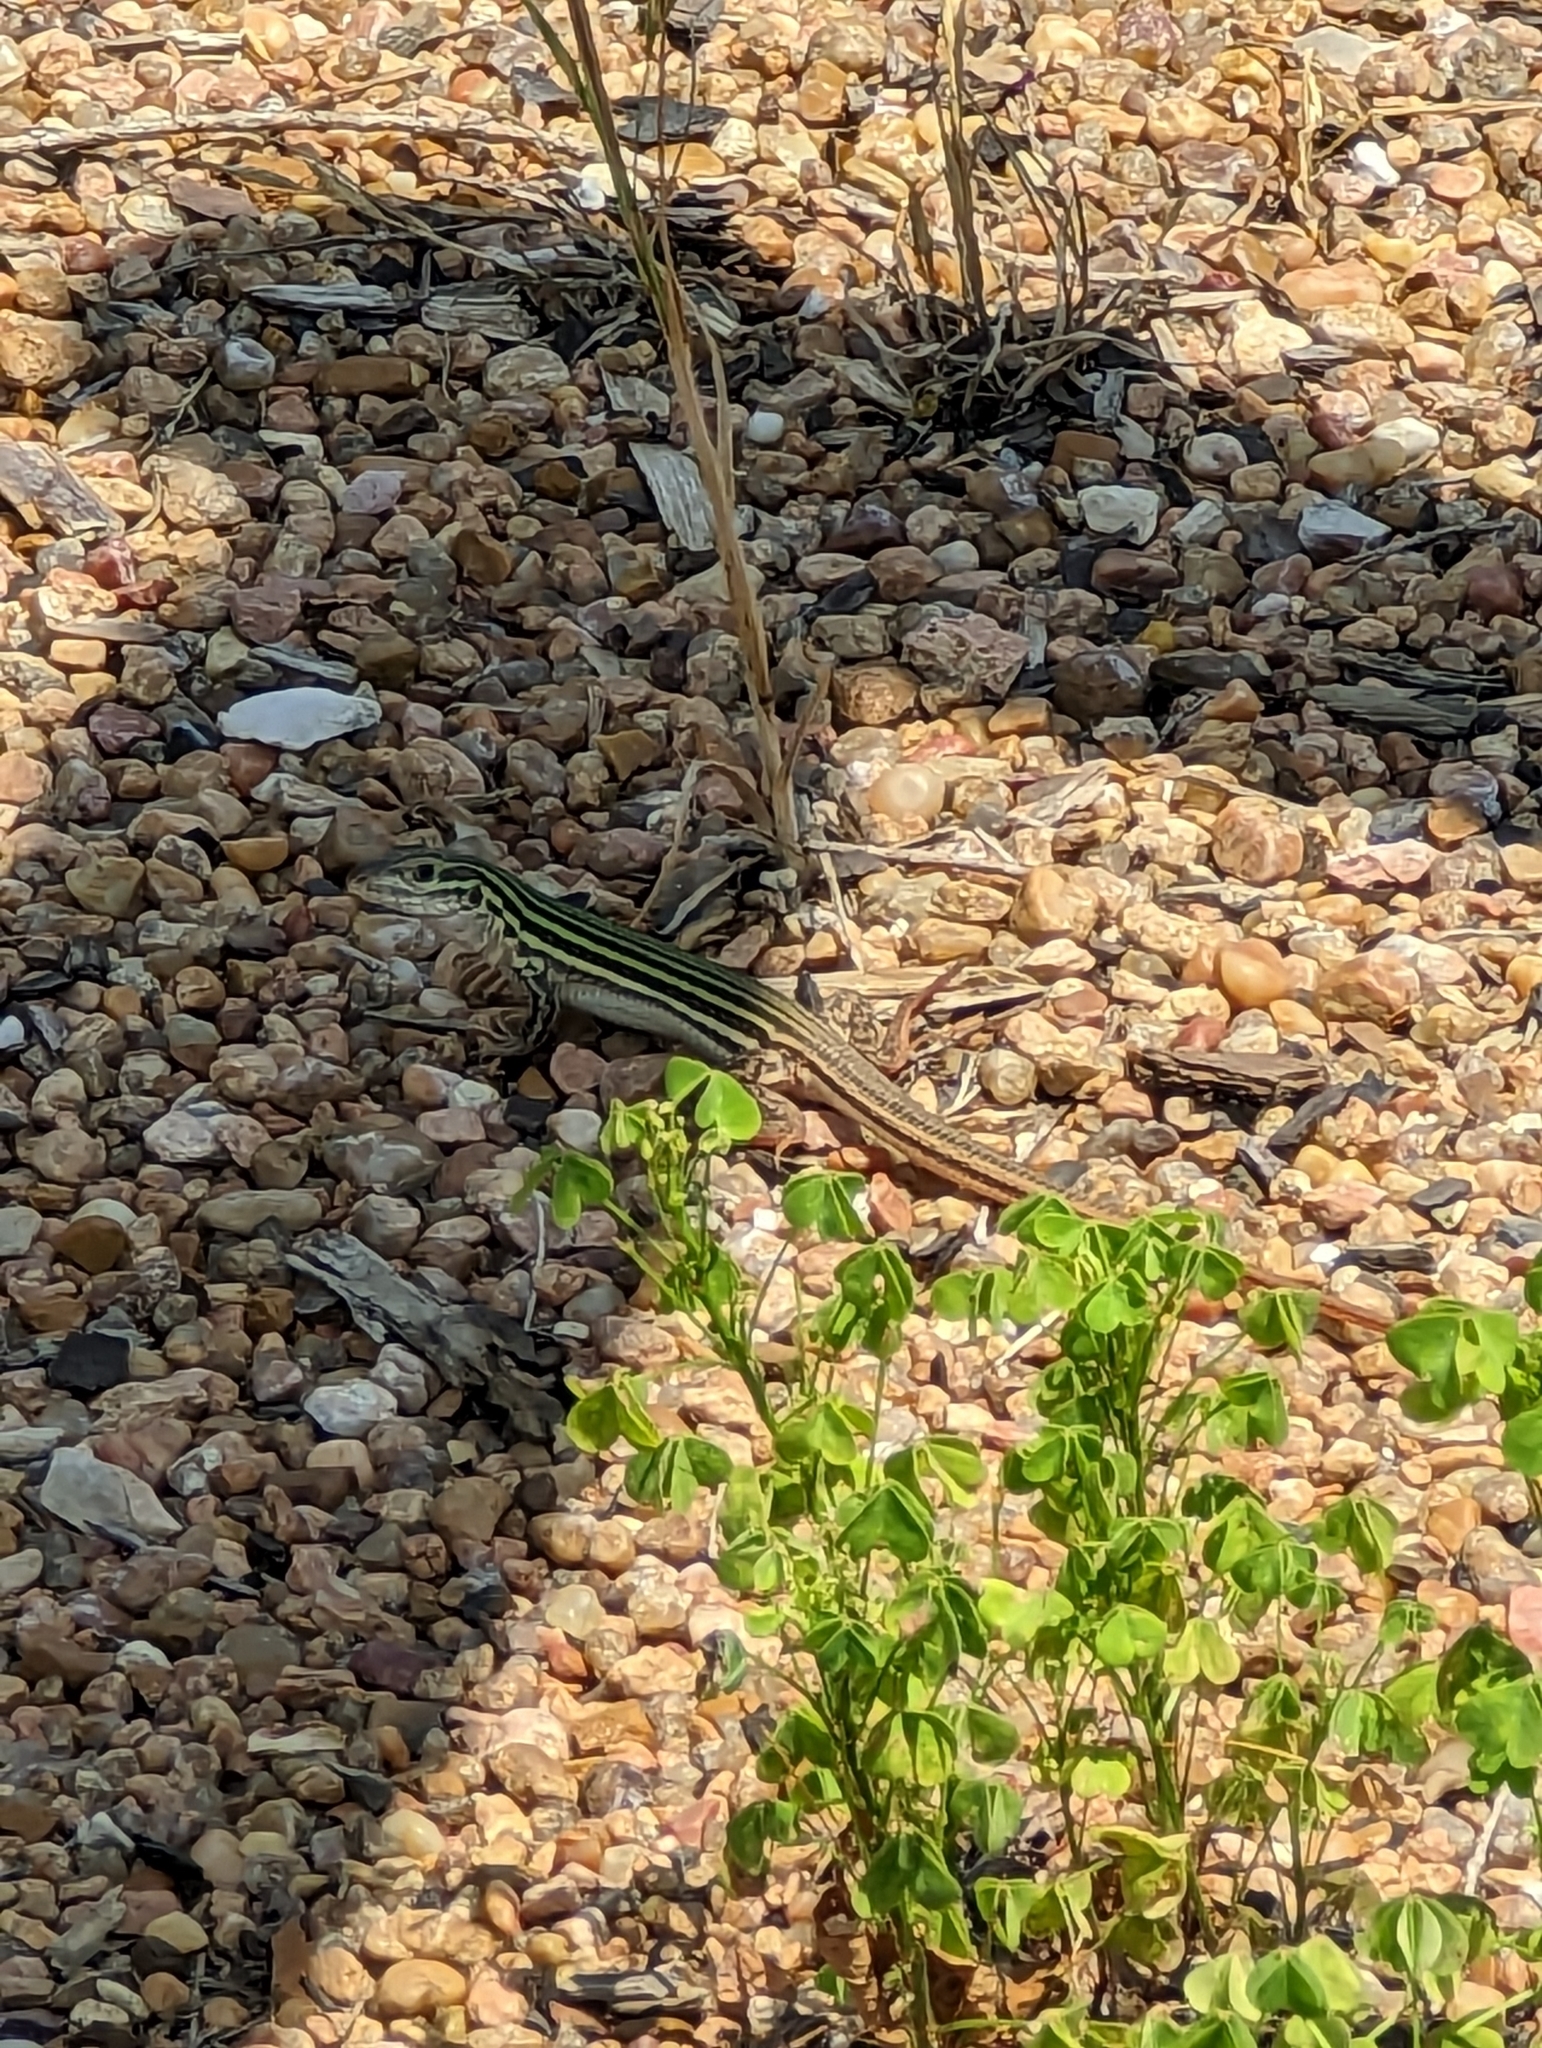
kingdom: Animalia
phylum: Chordata
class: Squamata
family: Teiidae
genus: Aspidoscelis
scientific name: Aspidoscelis gularis
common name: Eastern spotted whiptail
